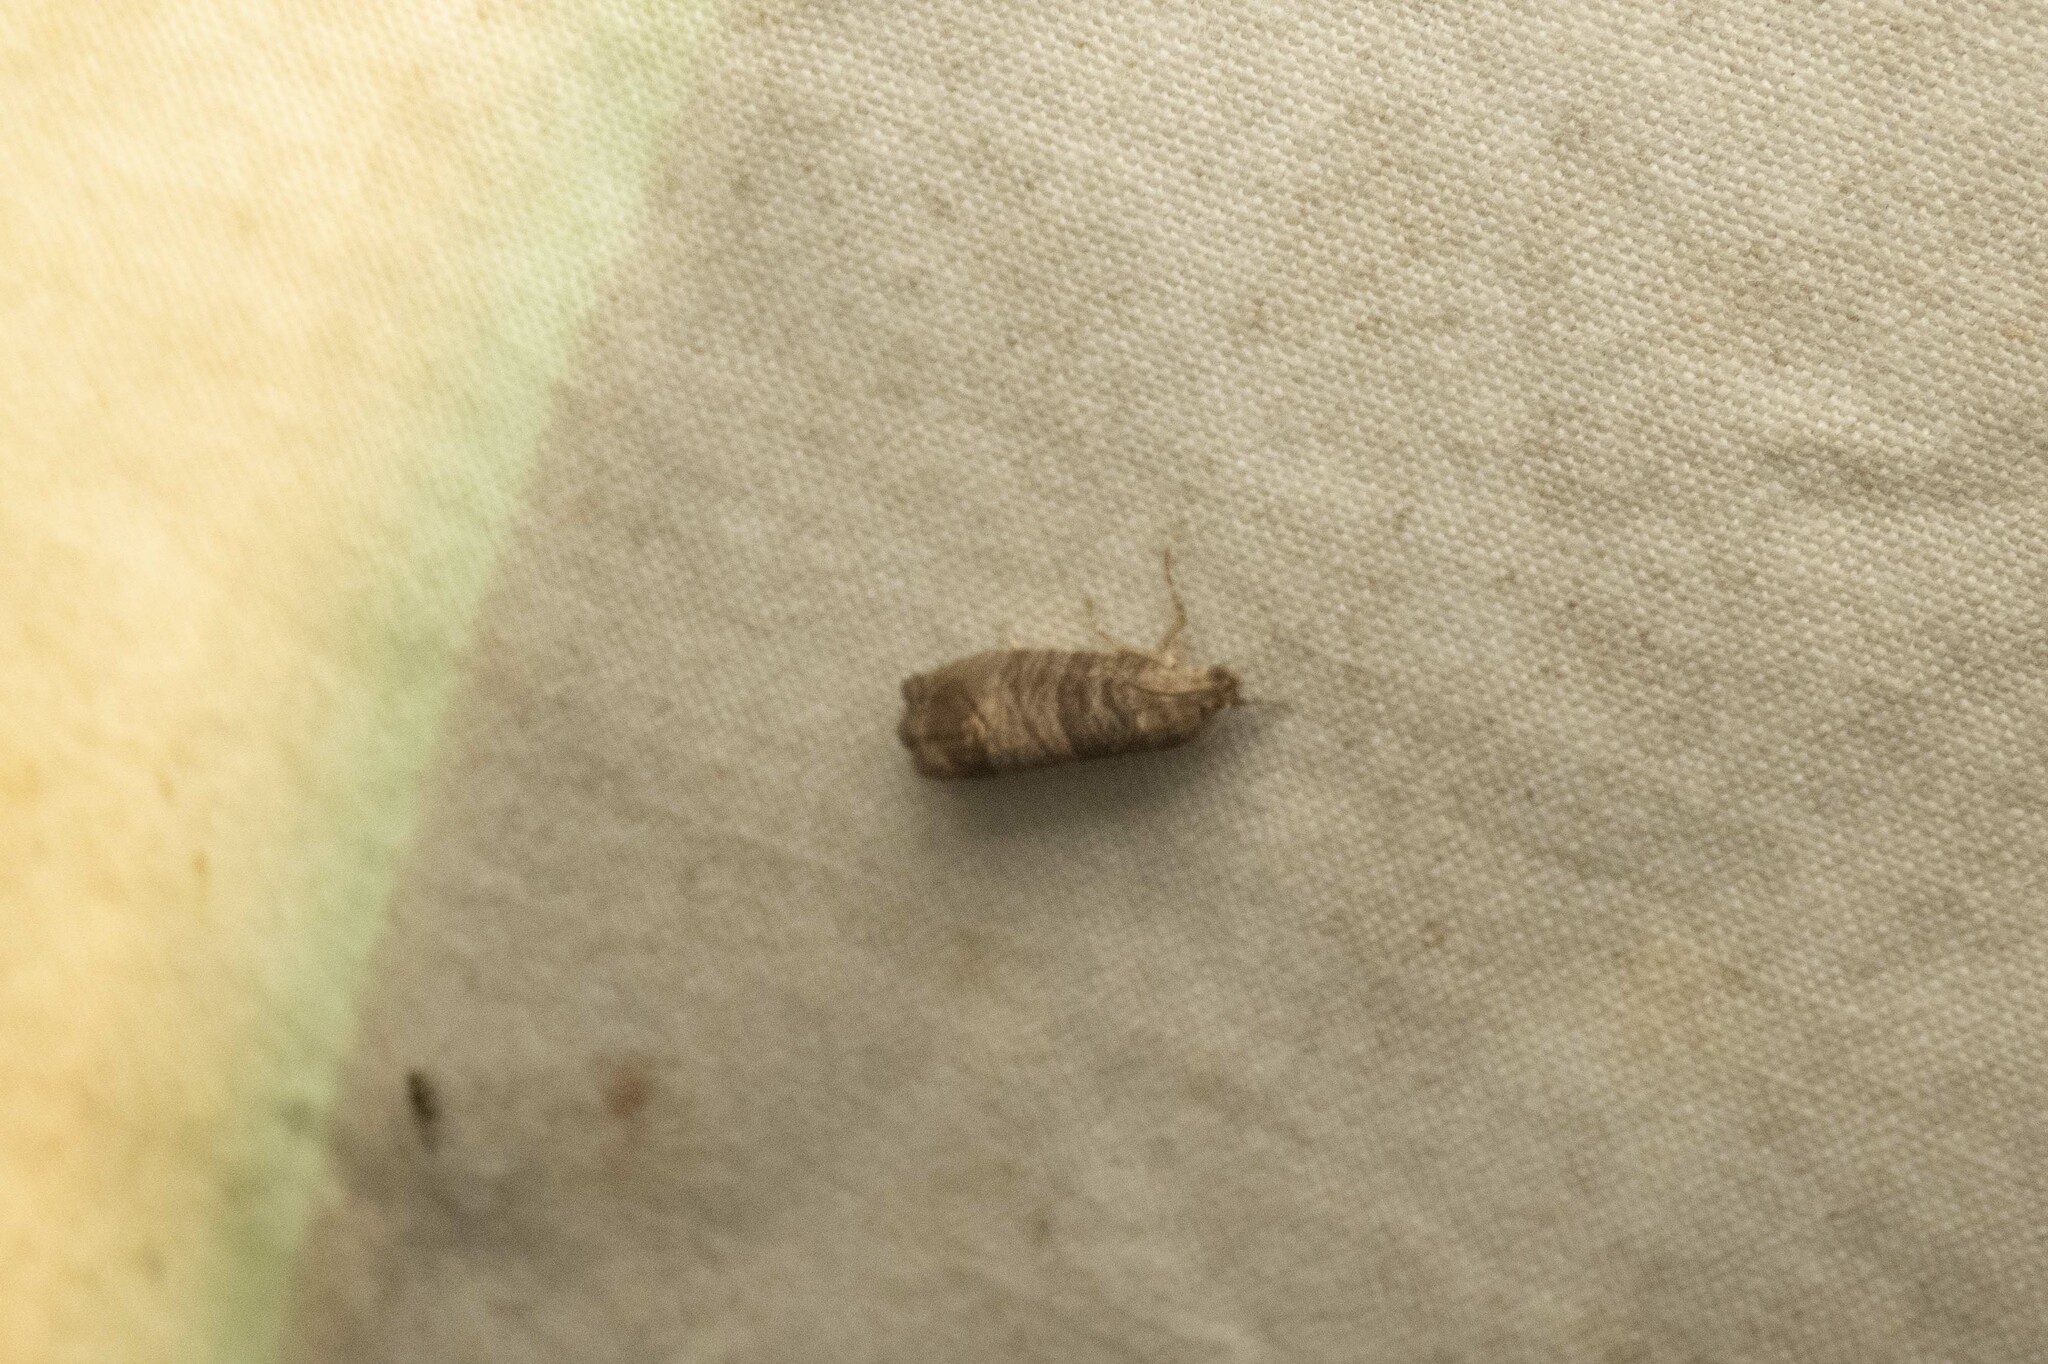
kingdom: Animalia
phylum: Arthropoda
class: Insecta
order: Lepidoptera
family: Tortricidae
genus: Cydia
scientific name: Cydia pomonella
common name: Codling moth
